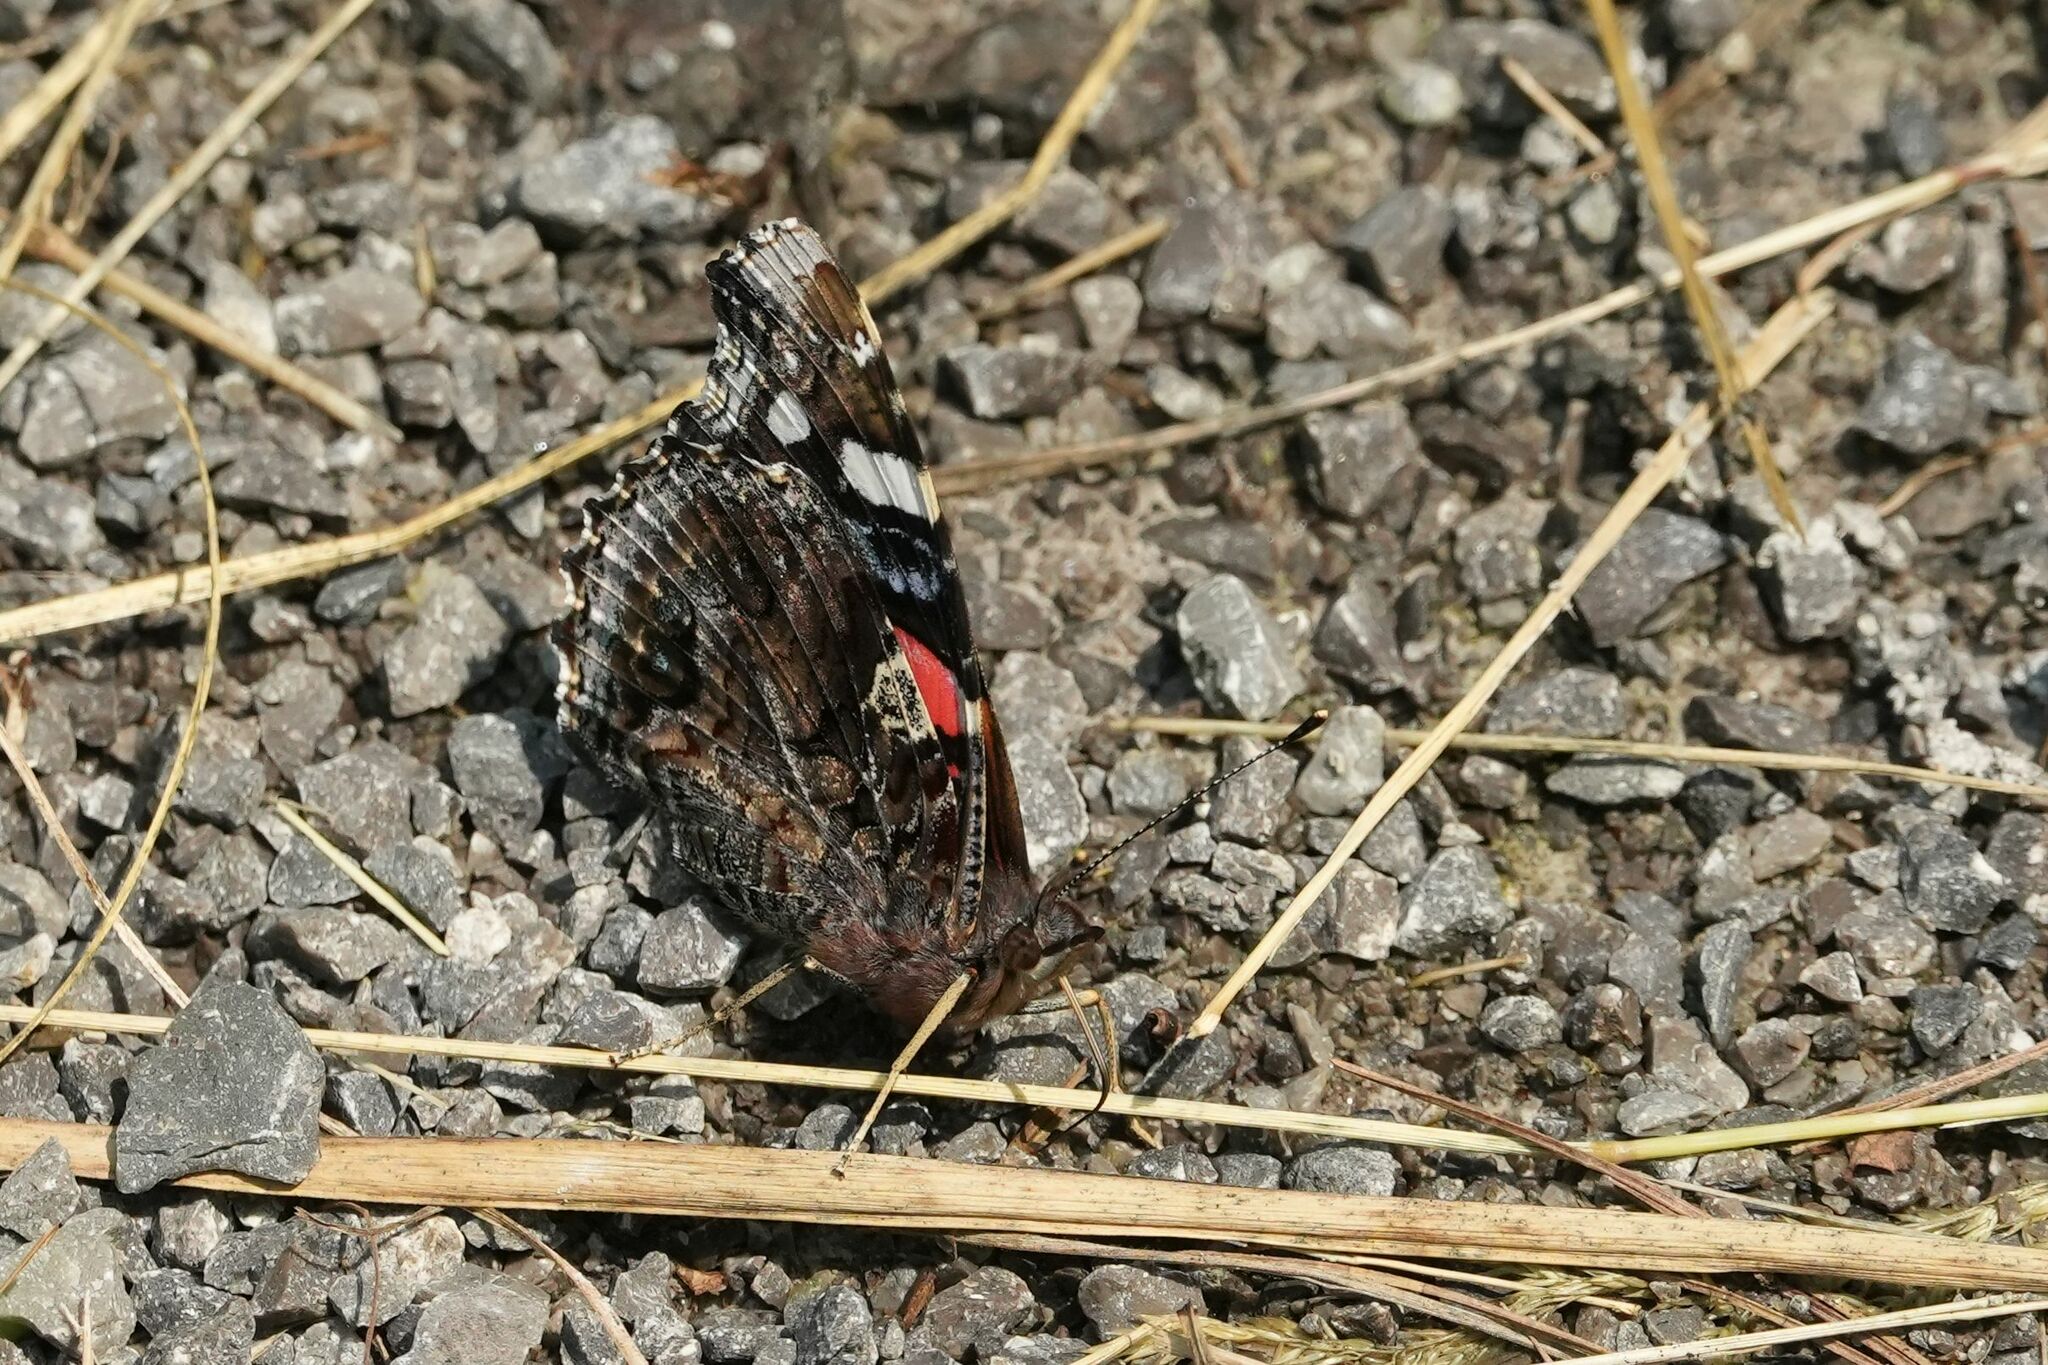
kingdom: Animalia
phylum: Arthropoda
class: Insecta
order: Lepidoptera
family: Nymphalidae
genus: Vanessa
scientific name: Vanessa atalanta
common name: Red admiral
